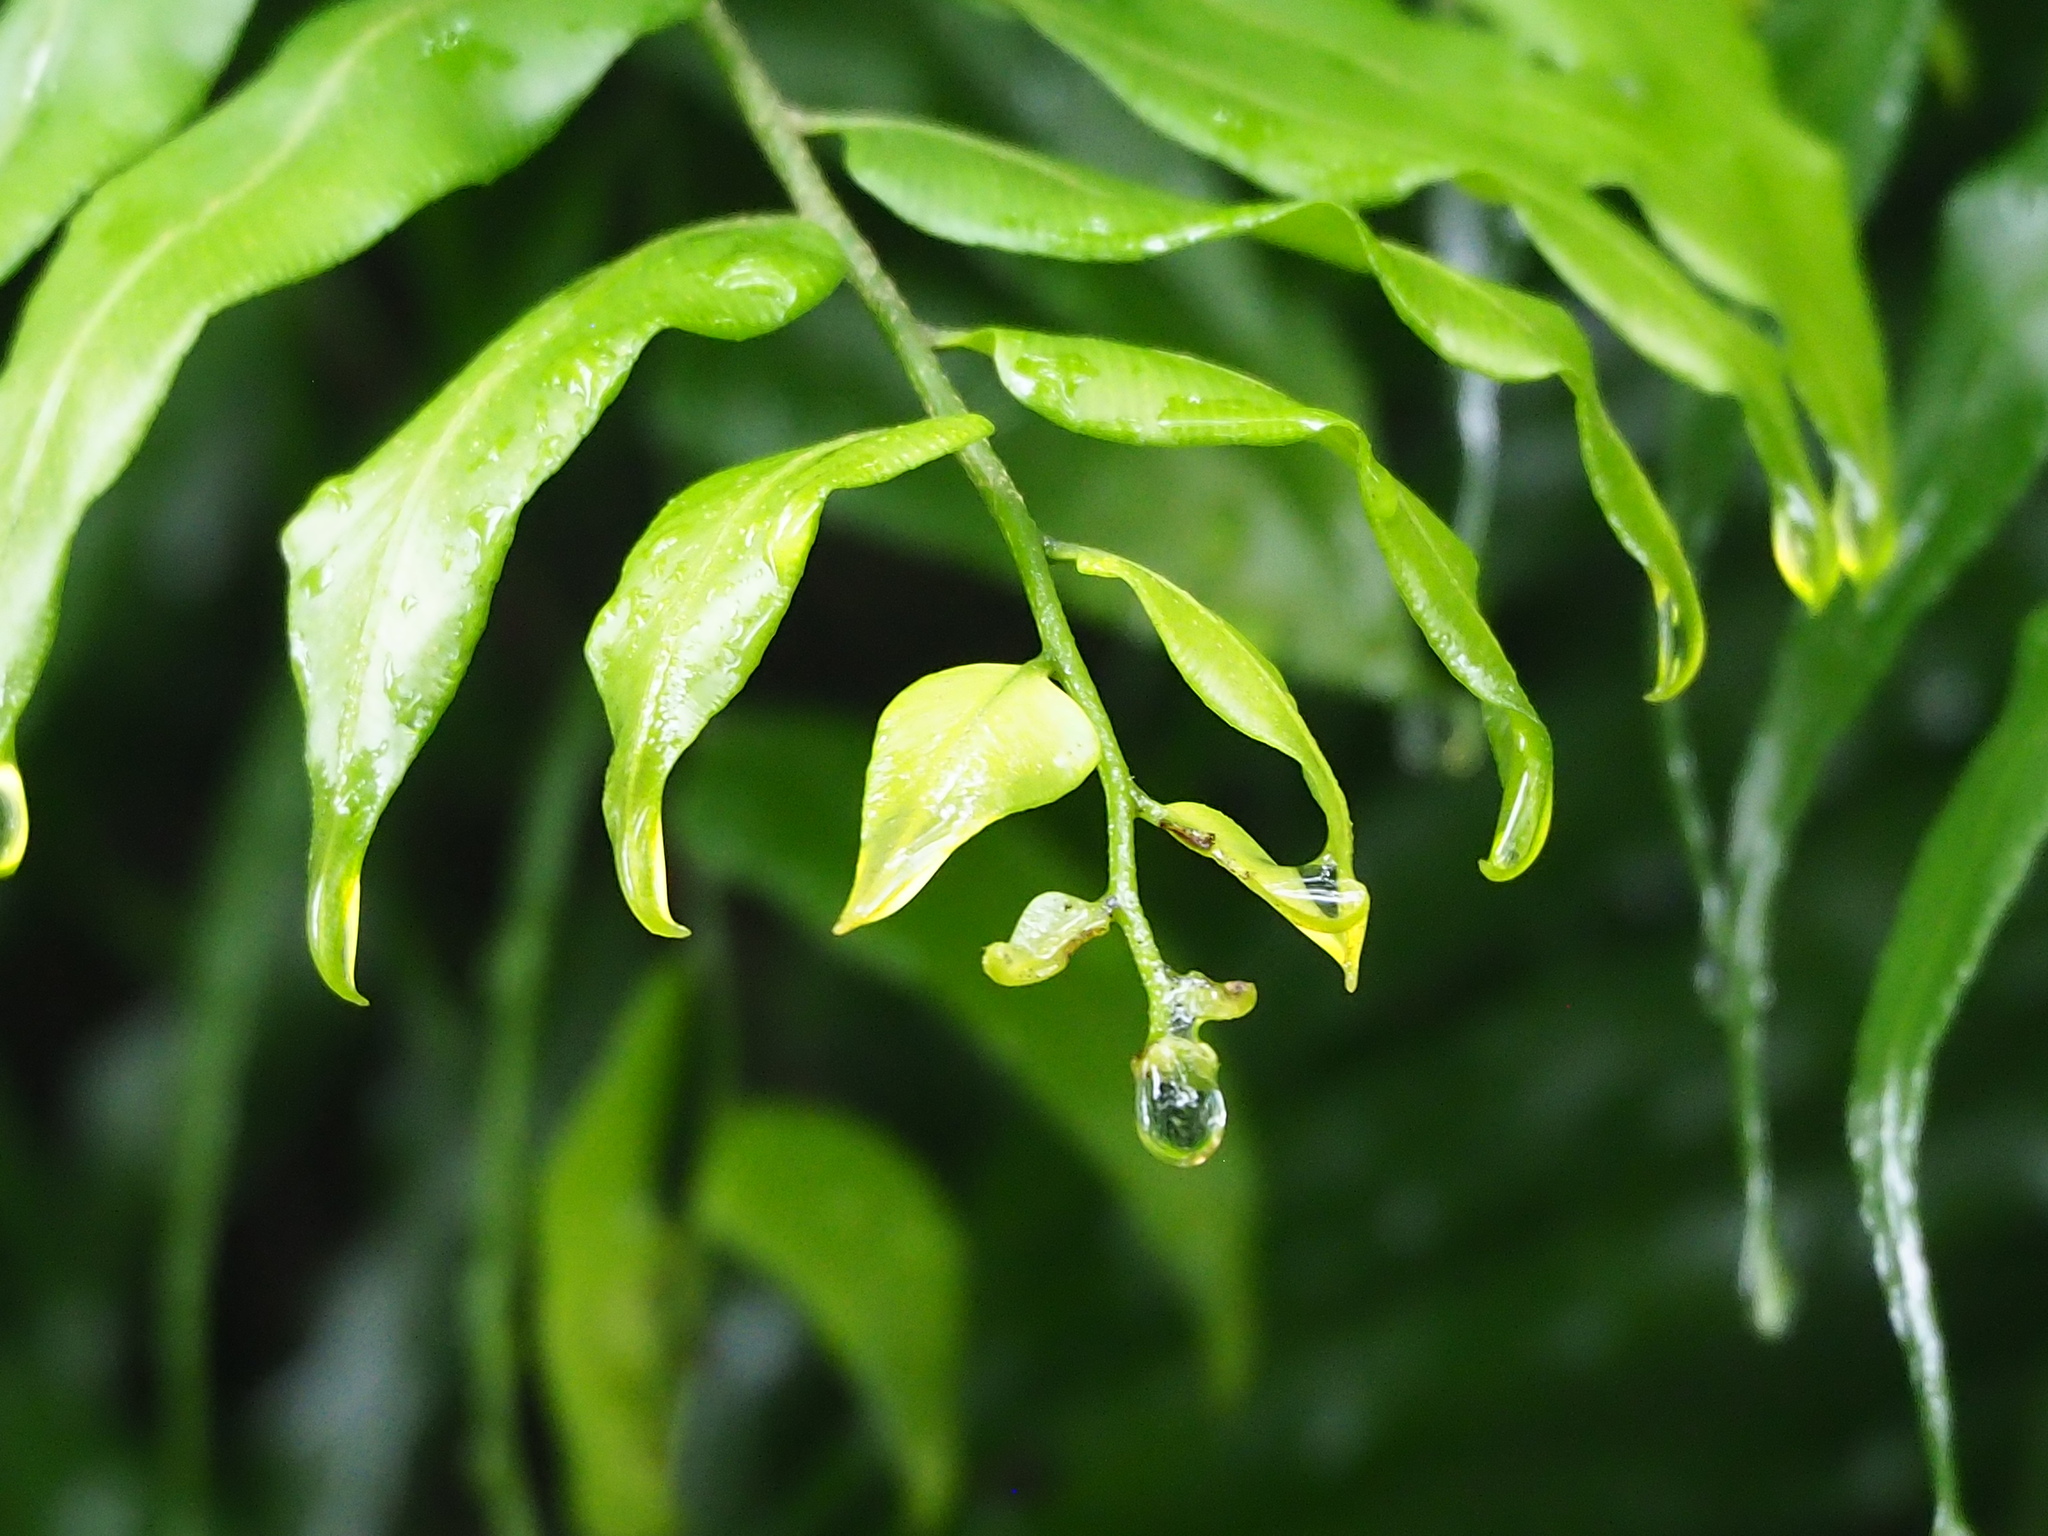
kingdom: Plantae
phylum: Tracheophyta
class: Polypodiopsida
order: Polypodiales
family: Nephrolepidaceae
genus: Nephrolepis
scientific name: Nephrolepis biserrata
